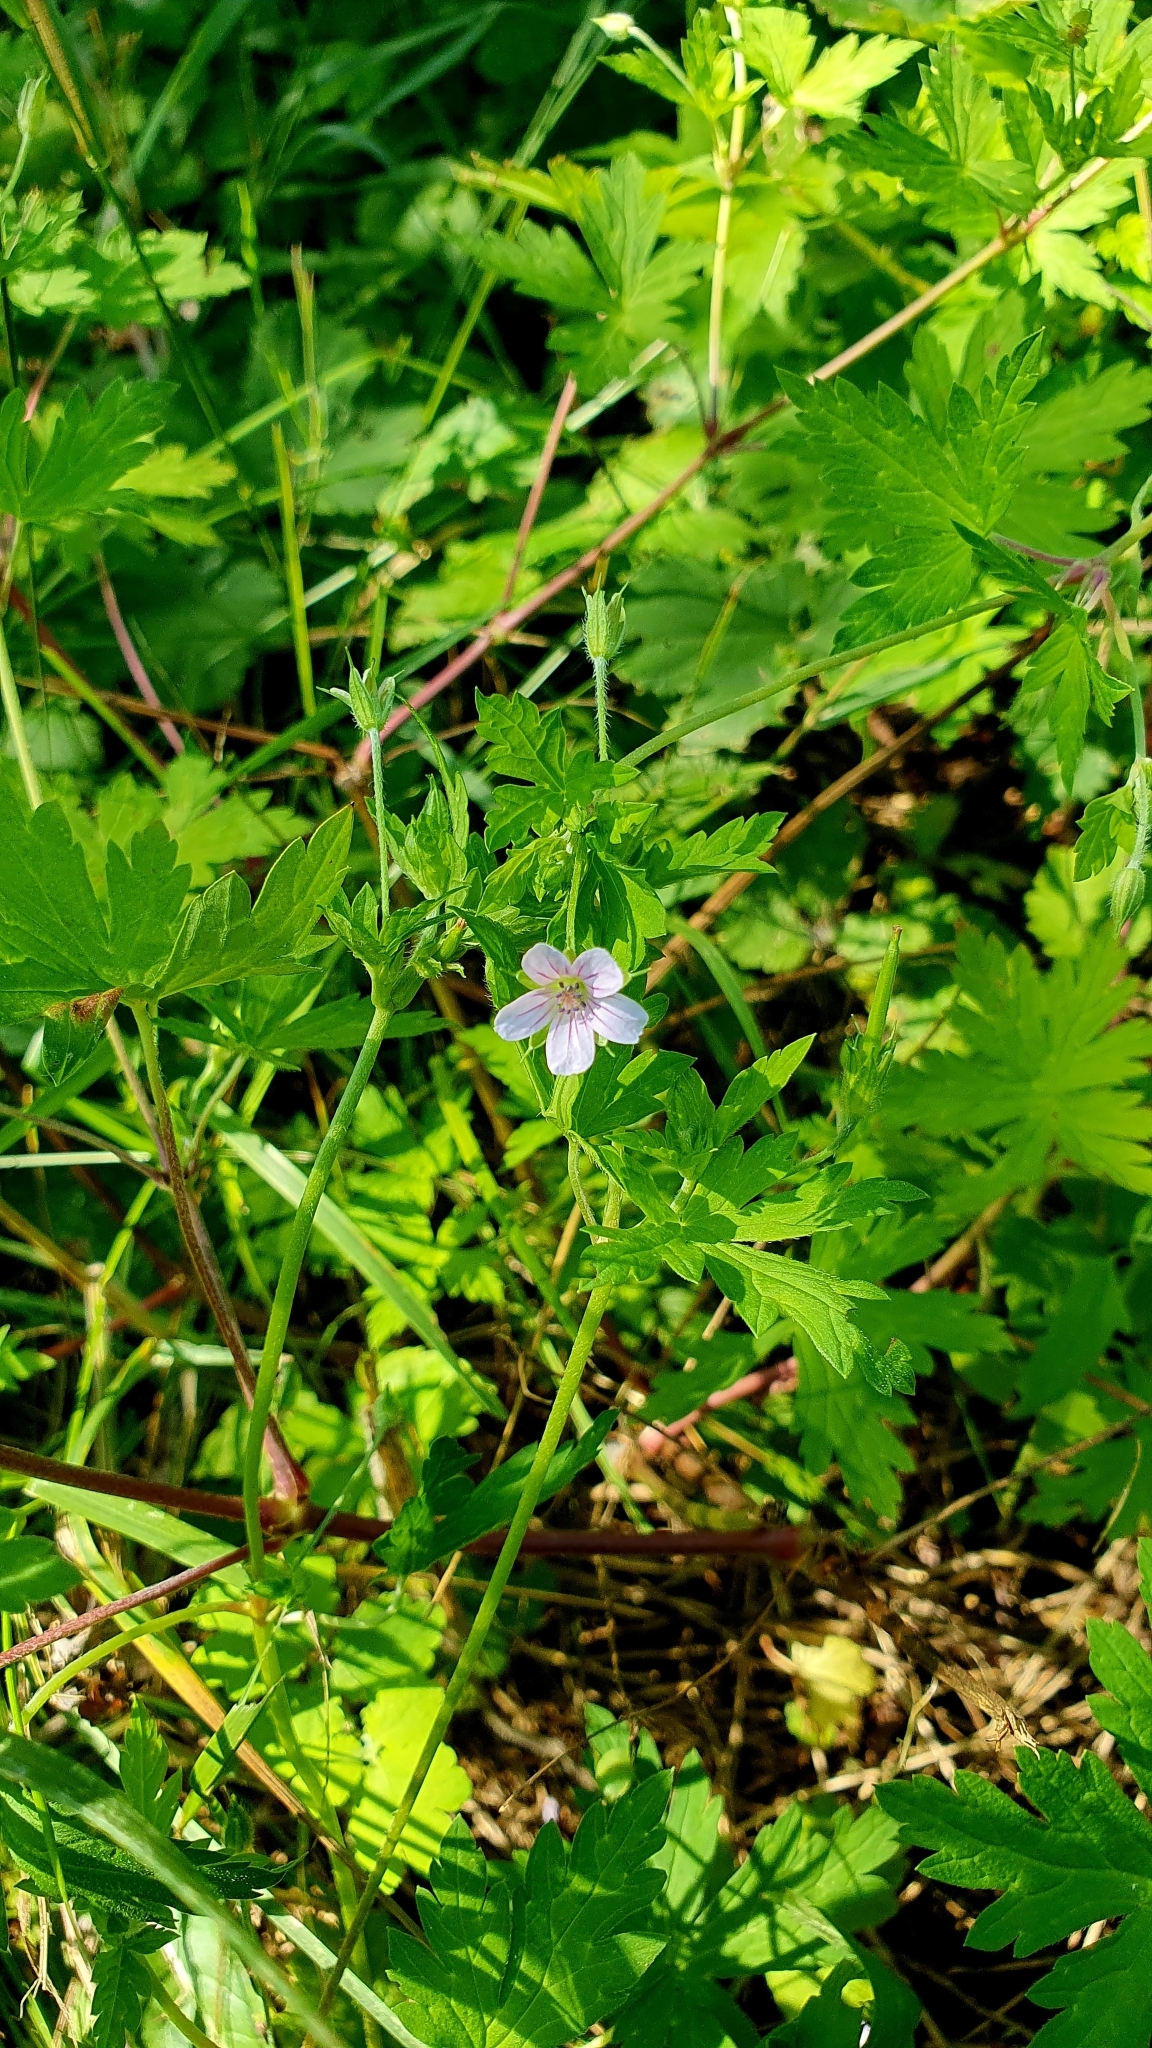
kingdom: Plantae
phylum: Tracheophyta
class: Magnoliopsida
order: Geraniales
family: Geraniaceae
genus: Geranium
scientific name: Geranium sibiricum
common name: Siberian crane's-bill
